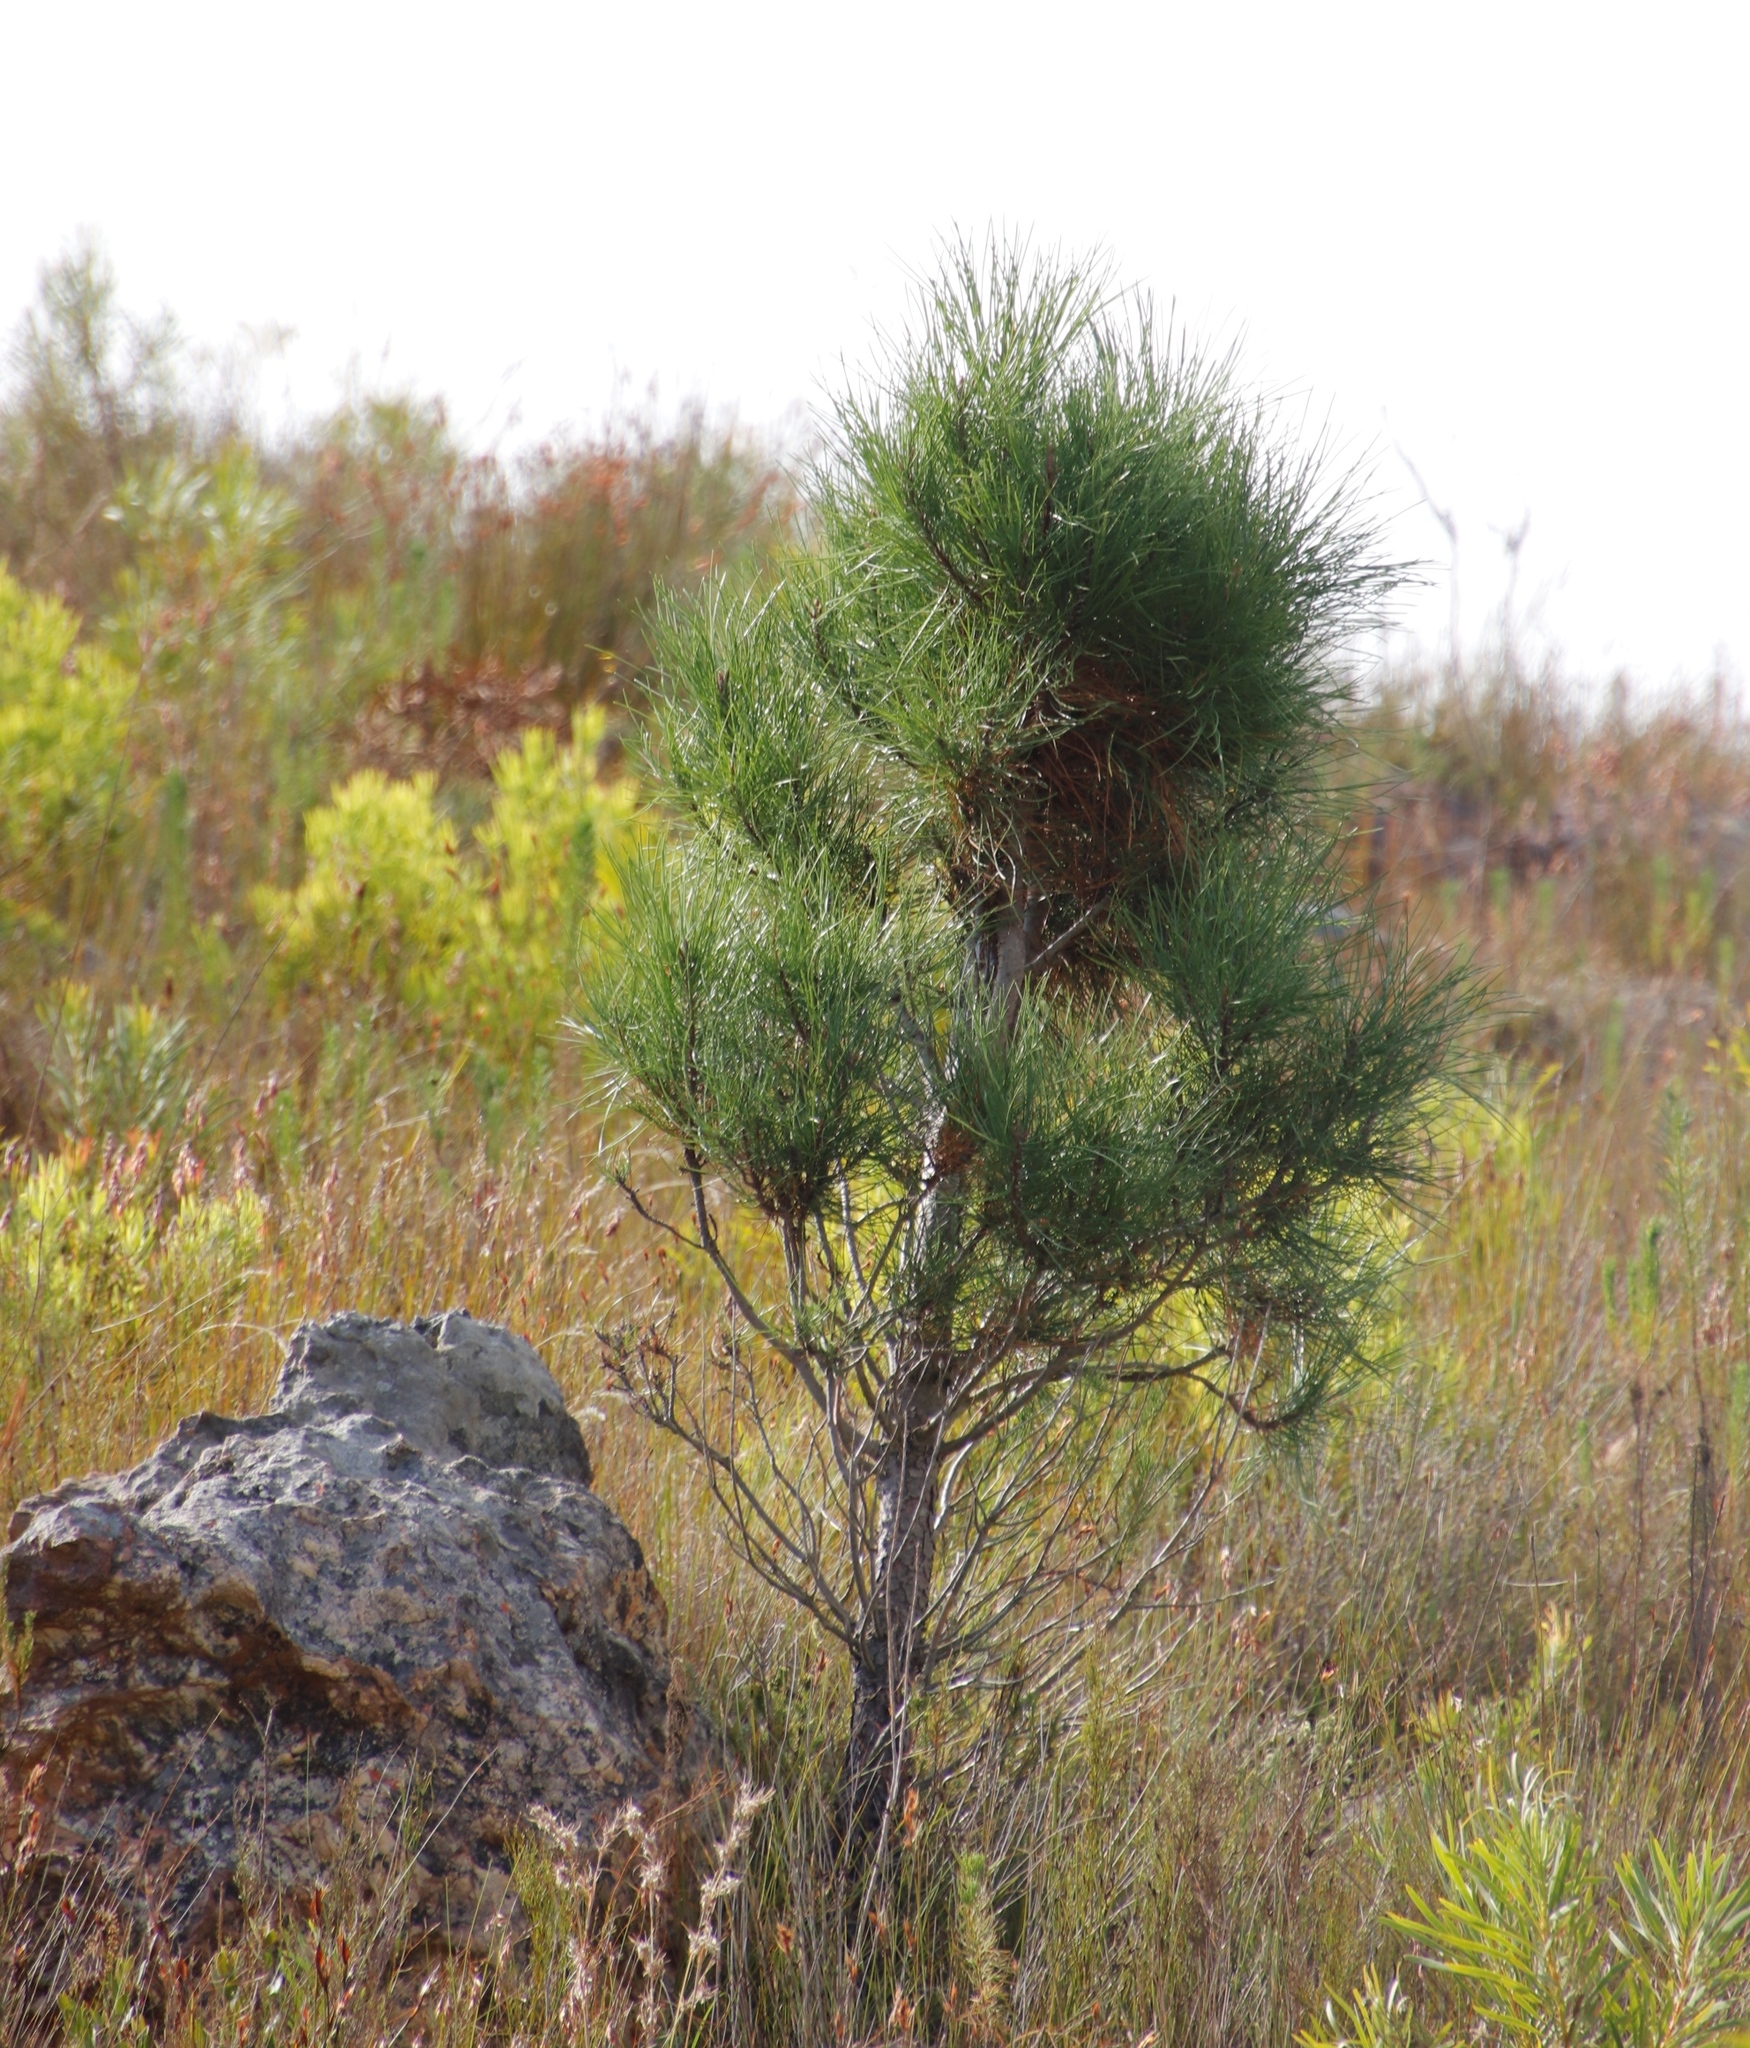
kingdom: Plantae
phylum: Tracheophyta
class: Pinopsida
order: Pinales
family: Pinaceae
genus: Pinus
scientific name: Pinus radiata
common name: Monterey pine
